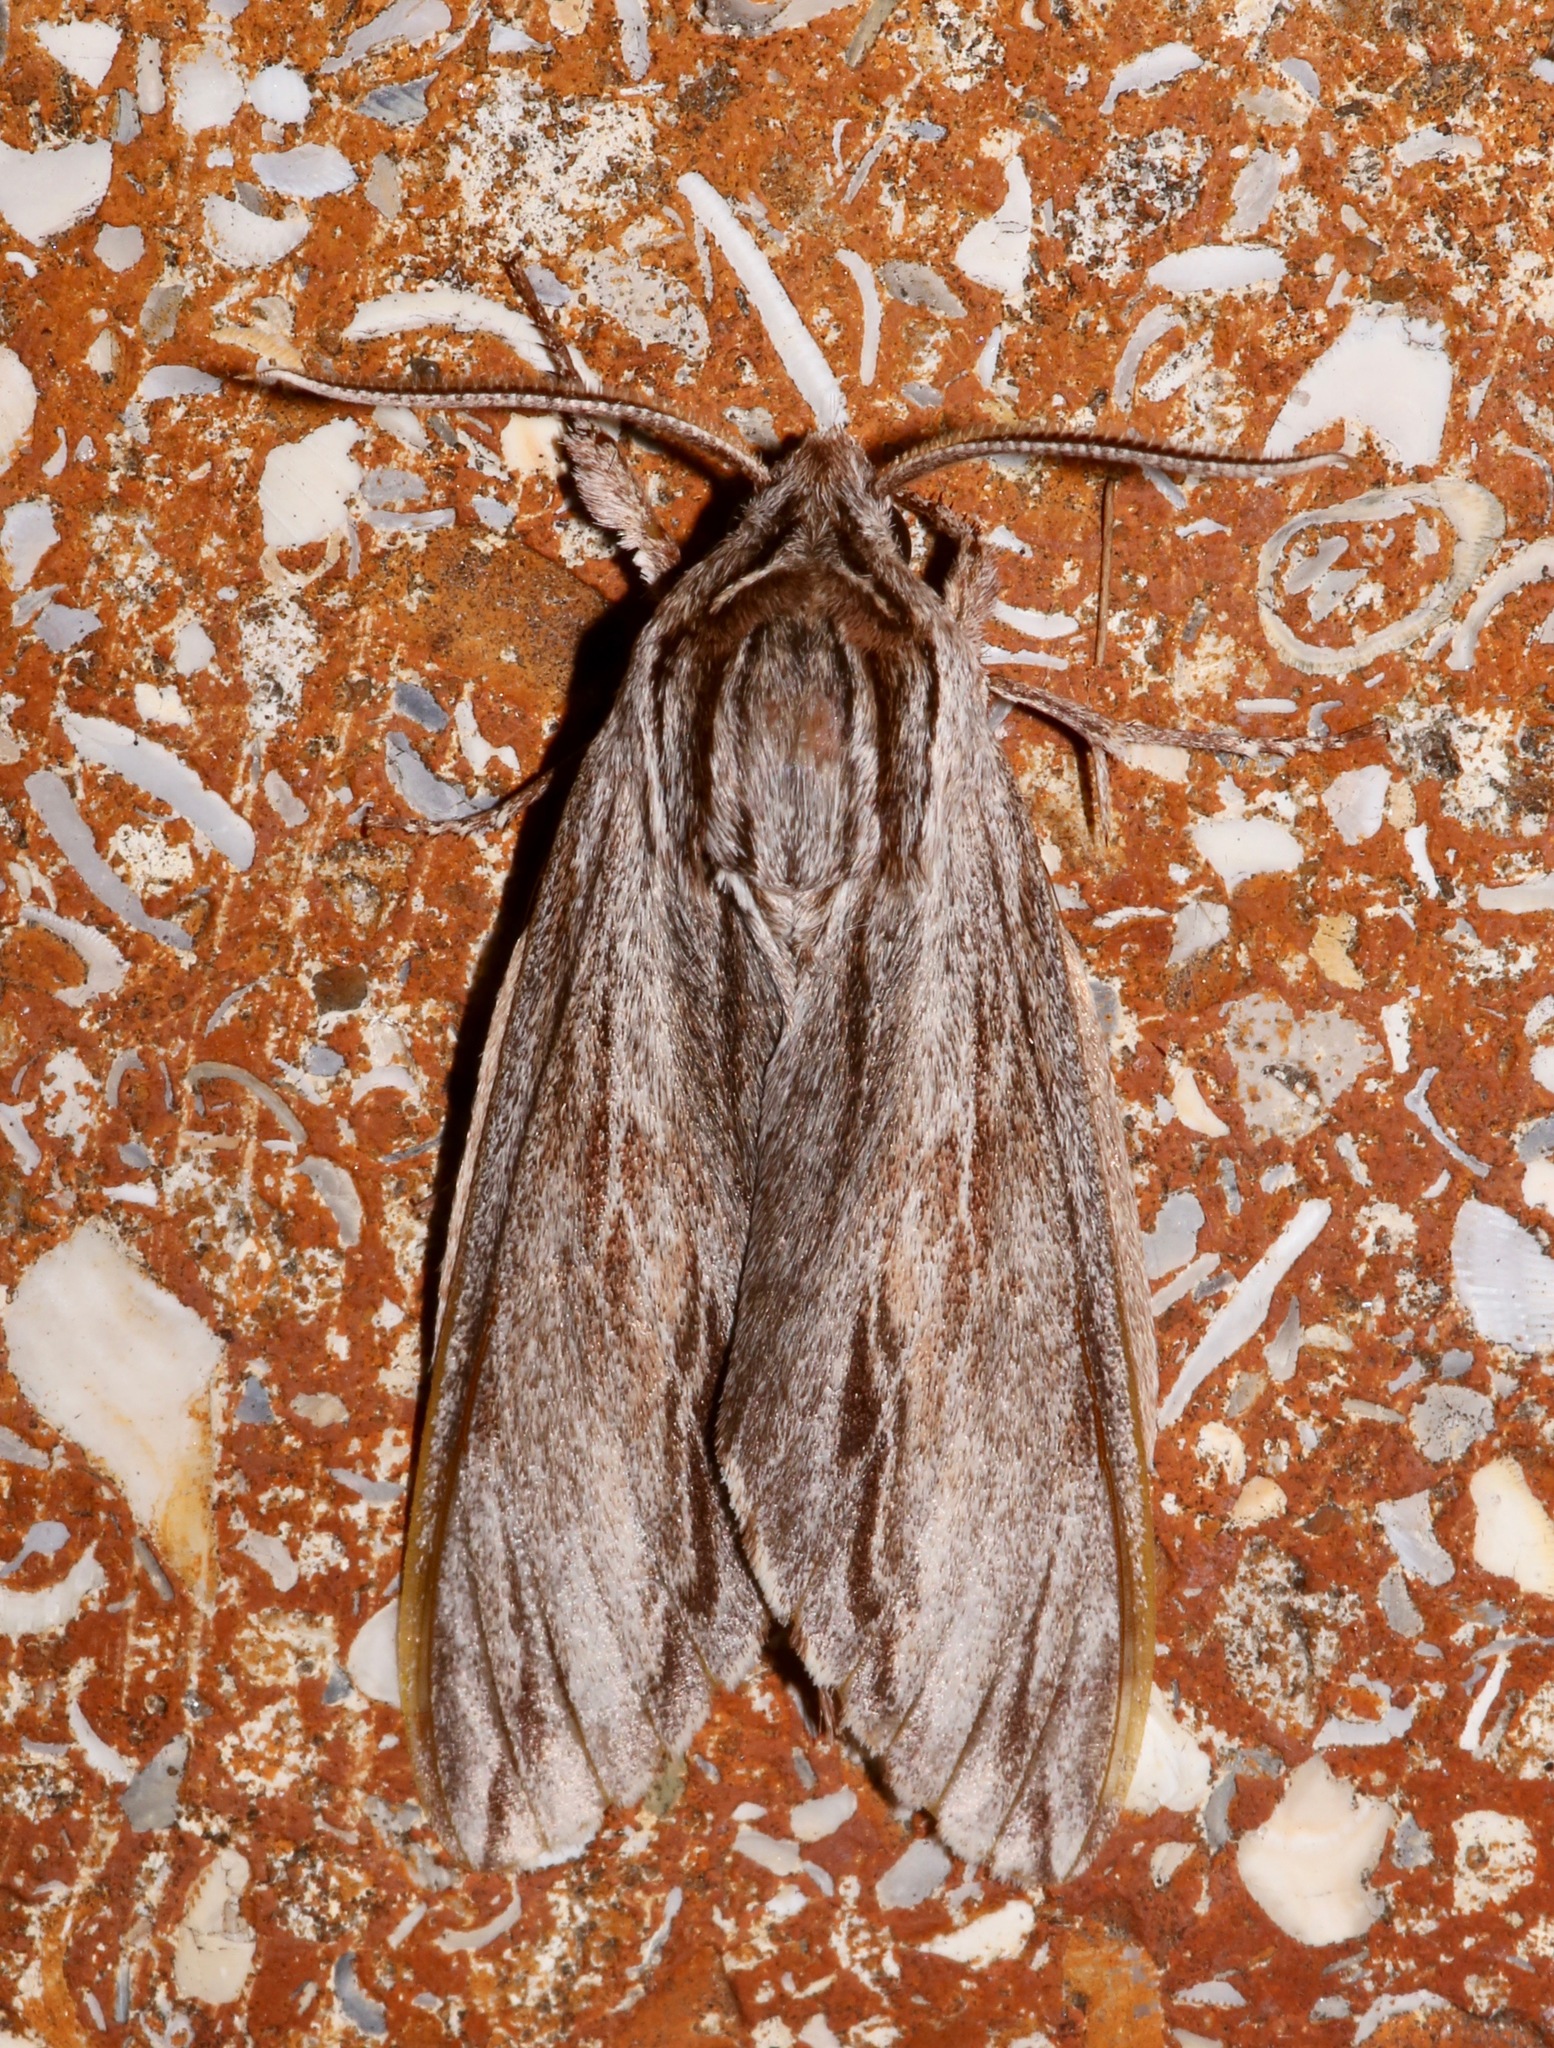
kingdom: Animalia
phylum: Arthropoda
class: Insecta
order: Lepidoptera
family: Sphingidae
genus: Isoparce
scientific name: Isoparce cupressi
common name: Cypress sphinx
